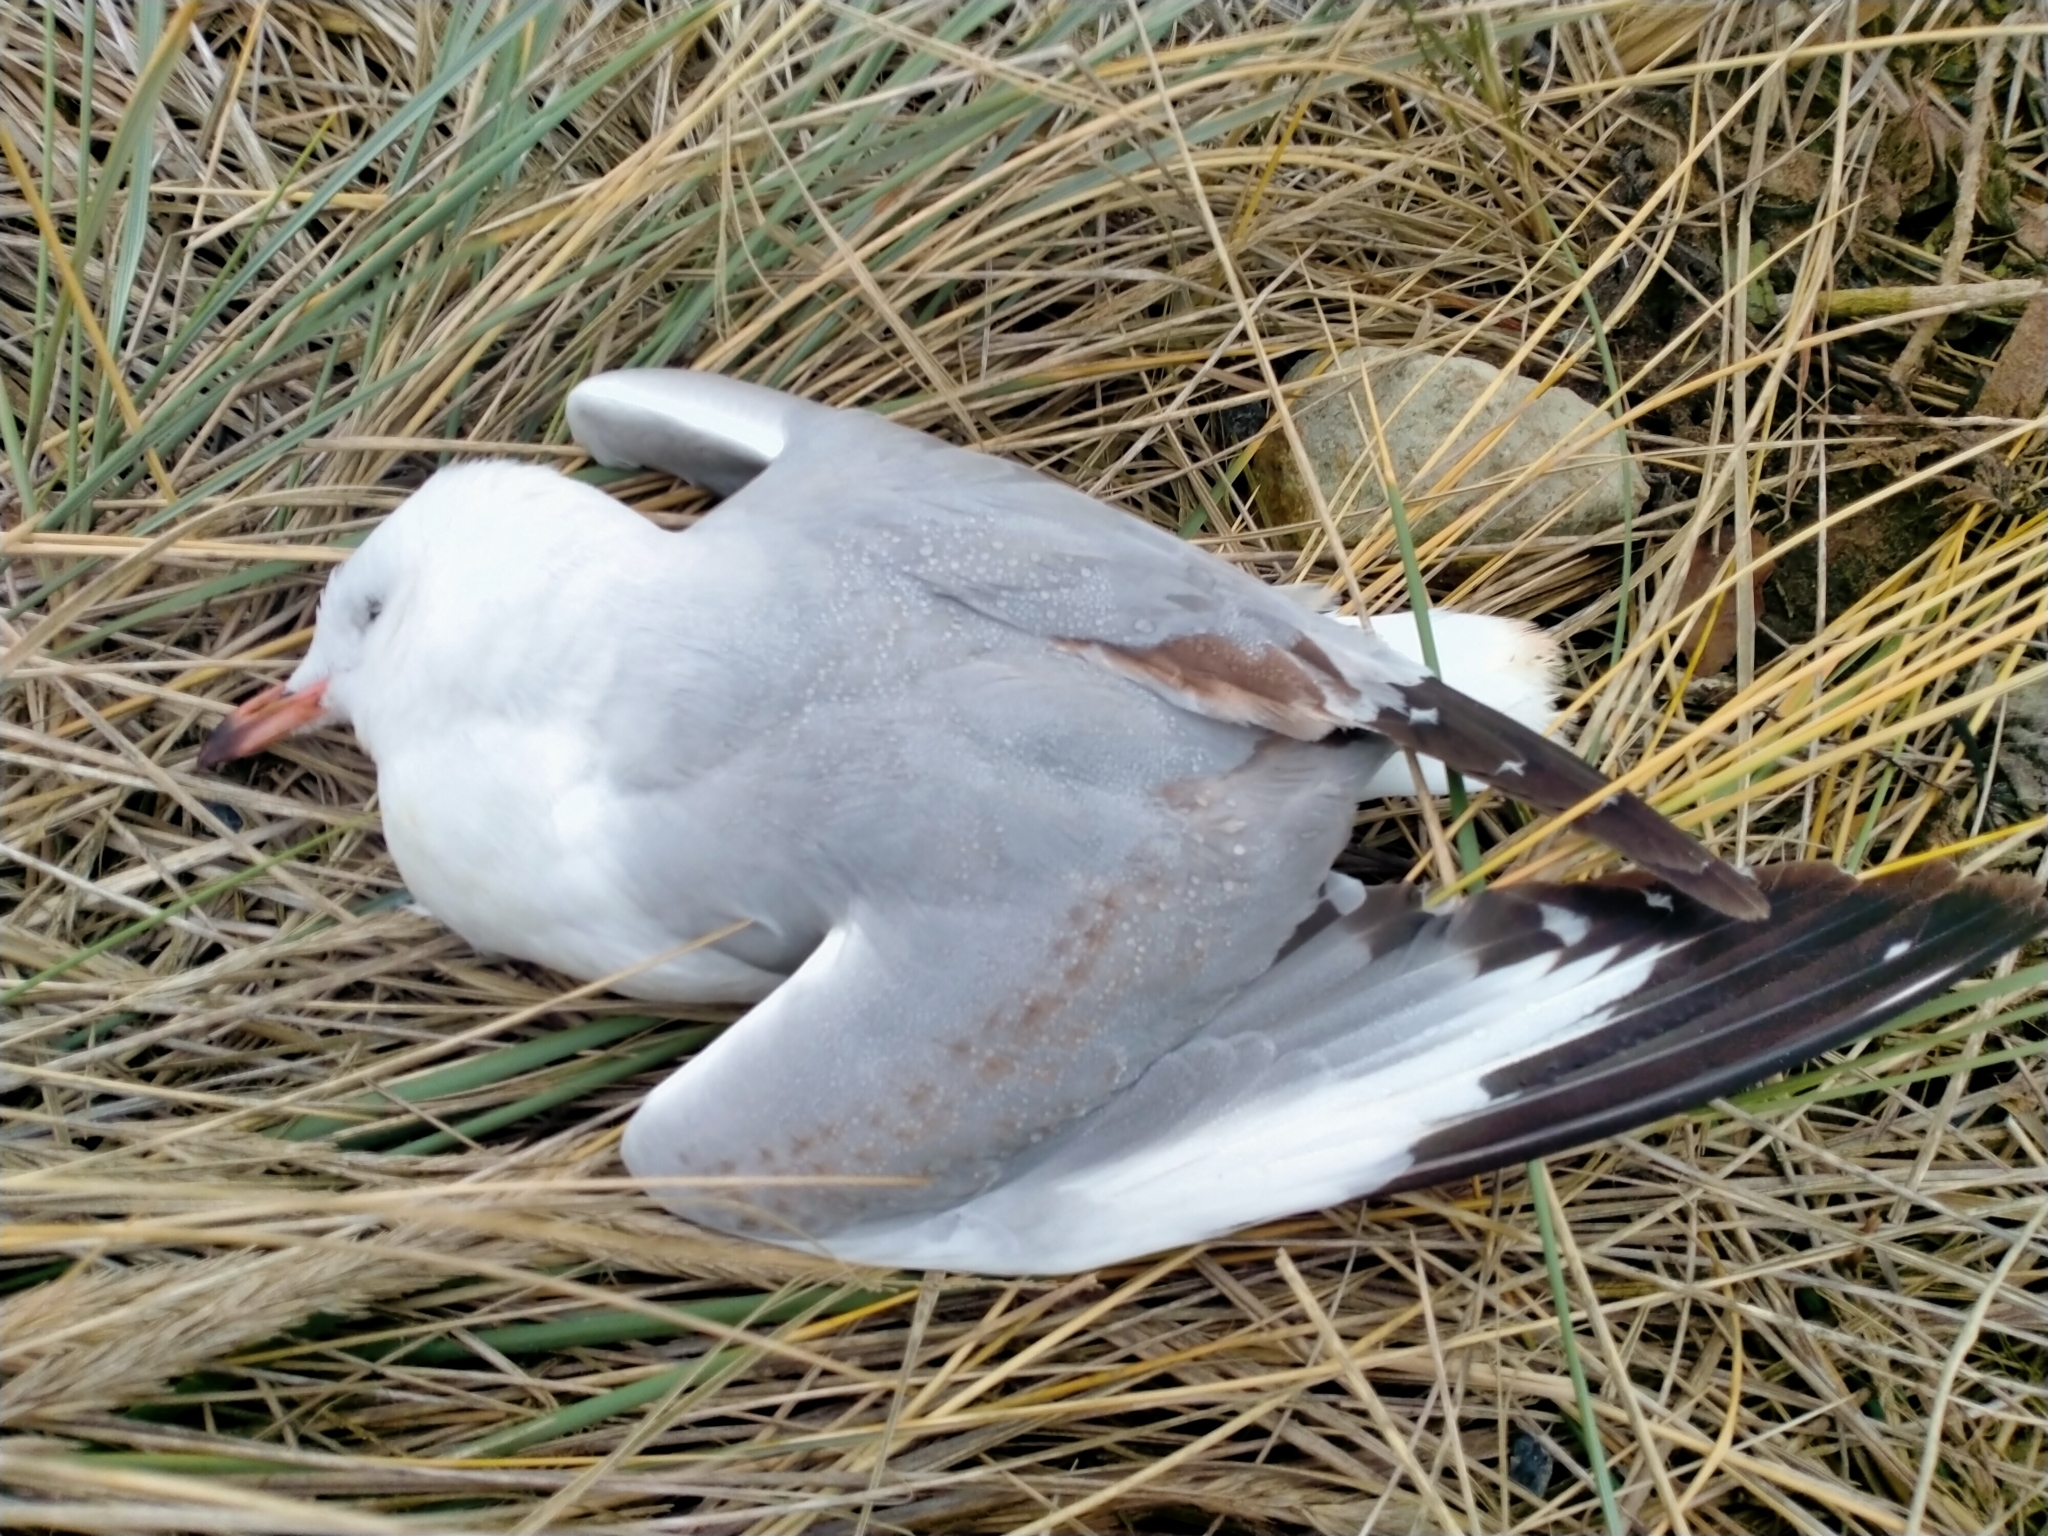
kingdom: Animalia
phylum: Chordata
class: Aves
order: Charadriiformes
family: Laridae
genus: Chroicocephalus
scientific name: Chroicocephalus novaehollandiae
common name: Silver gull
